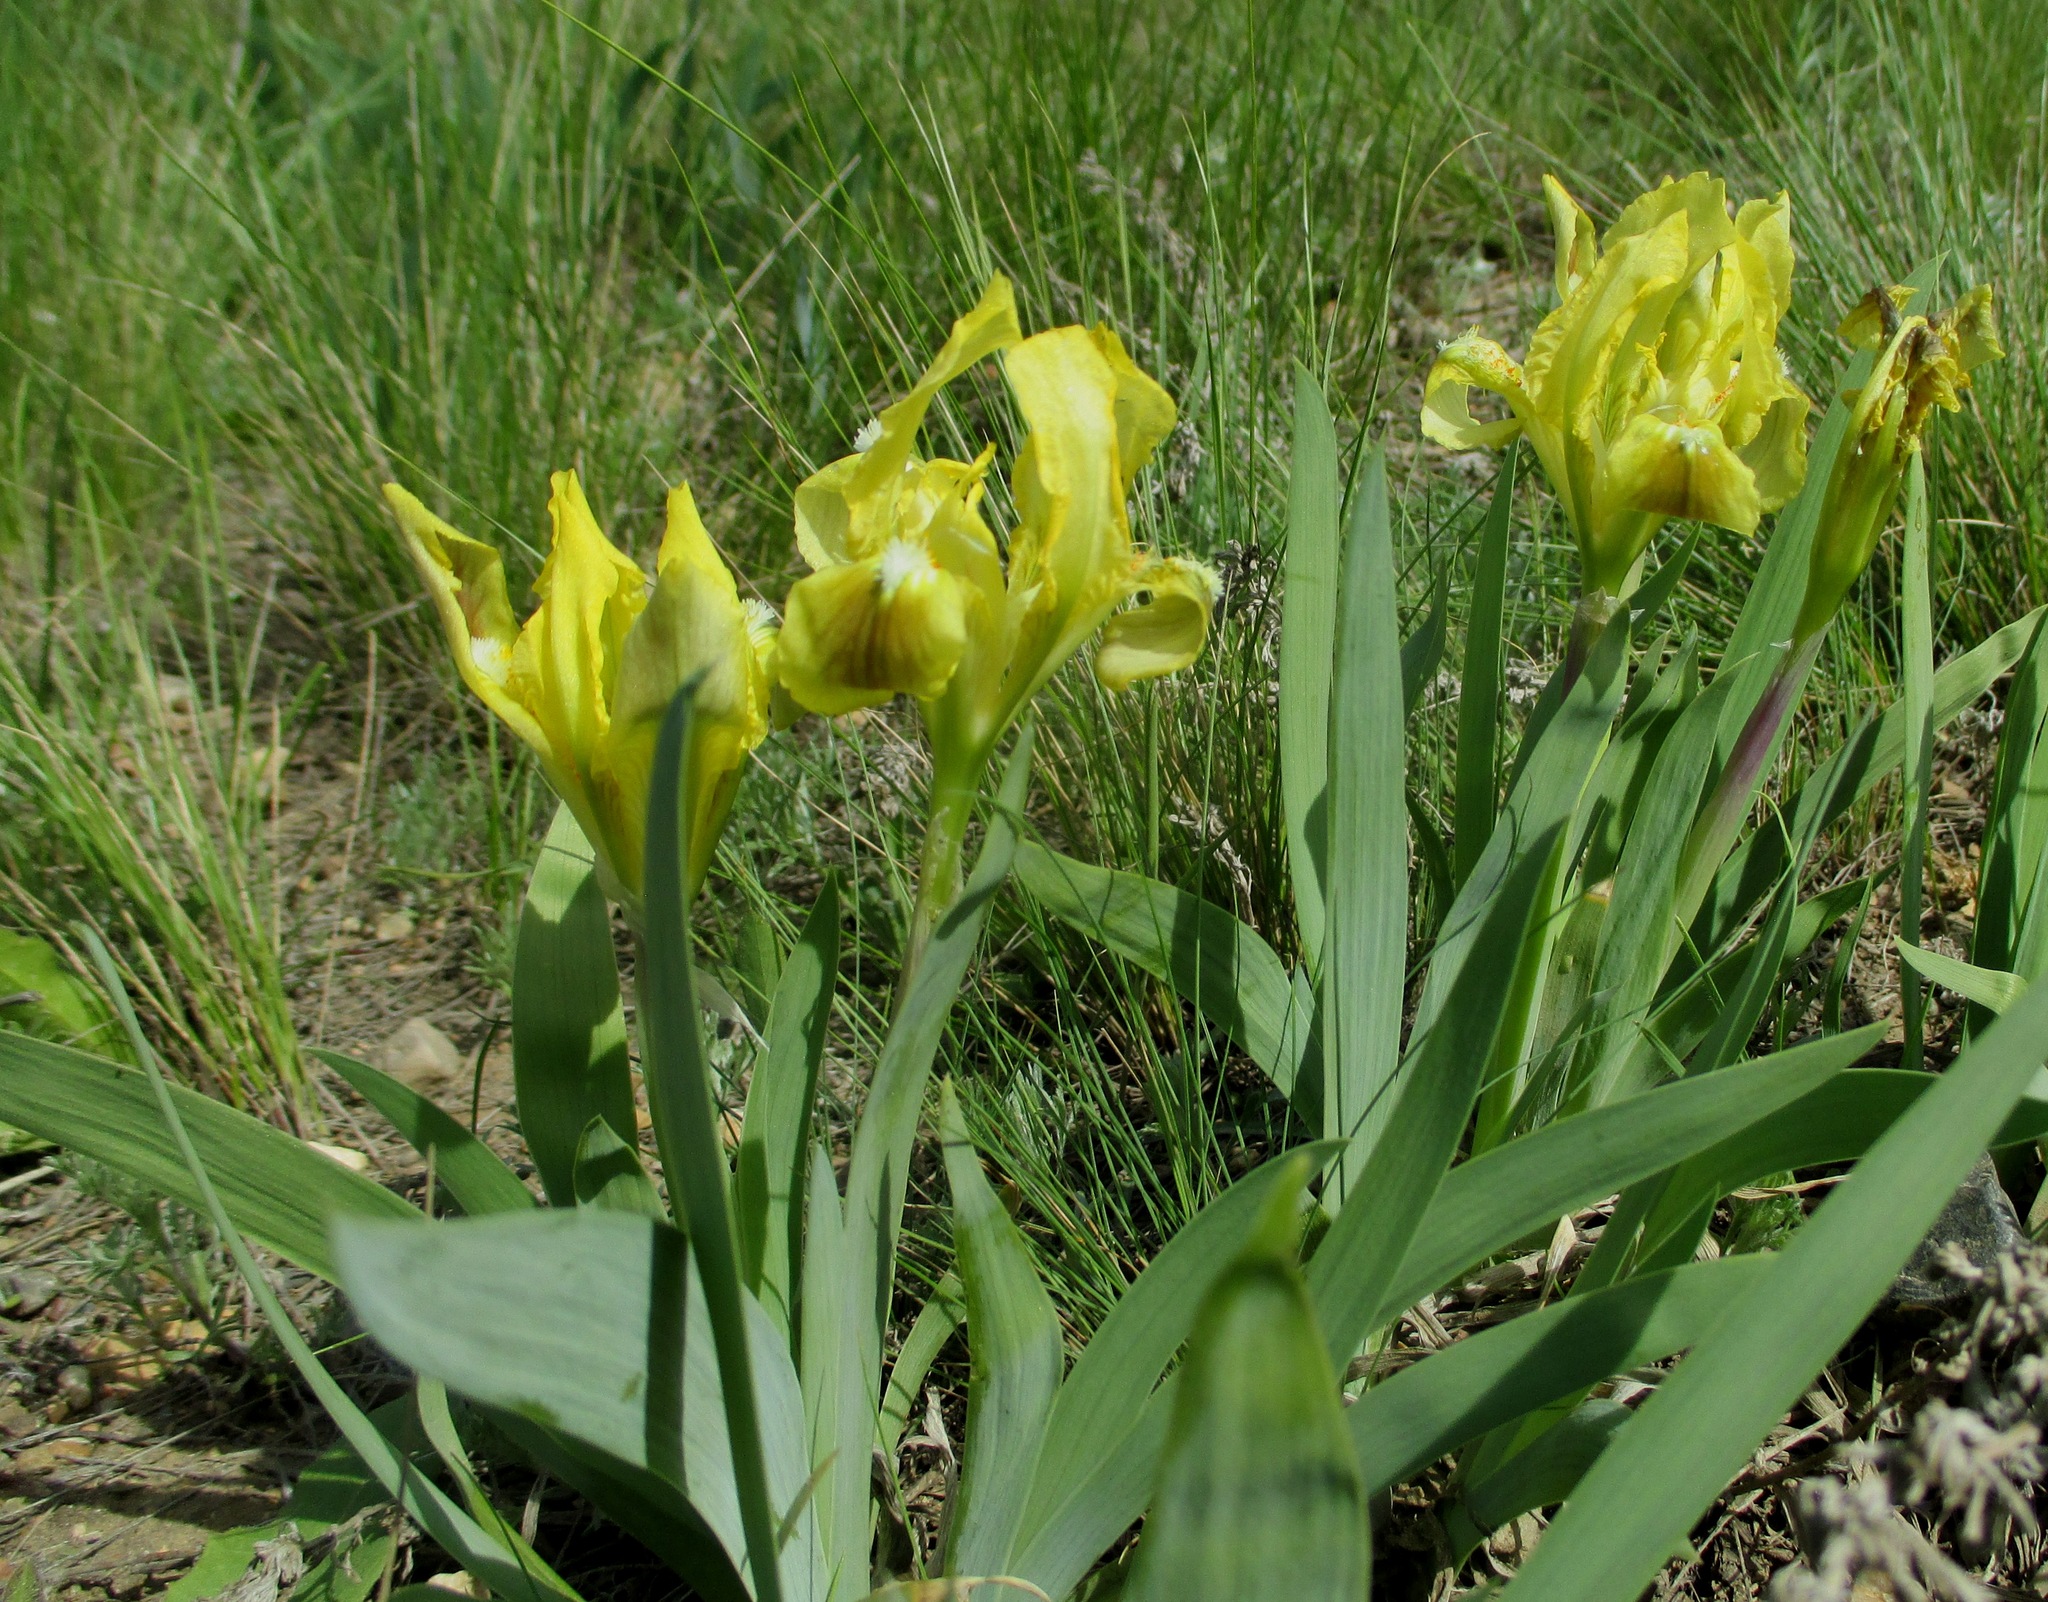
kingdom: Plantae
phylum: Tracheophyta
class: Liliopsida
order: Asparagales
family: Iridaceae
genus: Iris
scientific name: Iris pumila
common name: Dwarf iris
